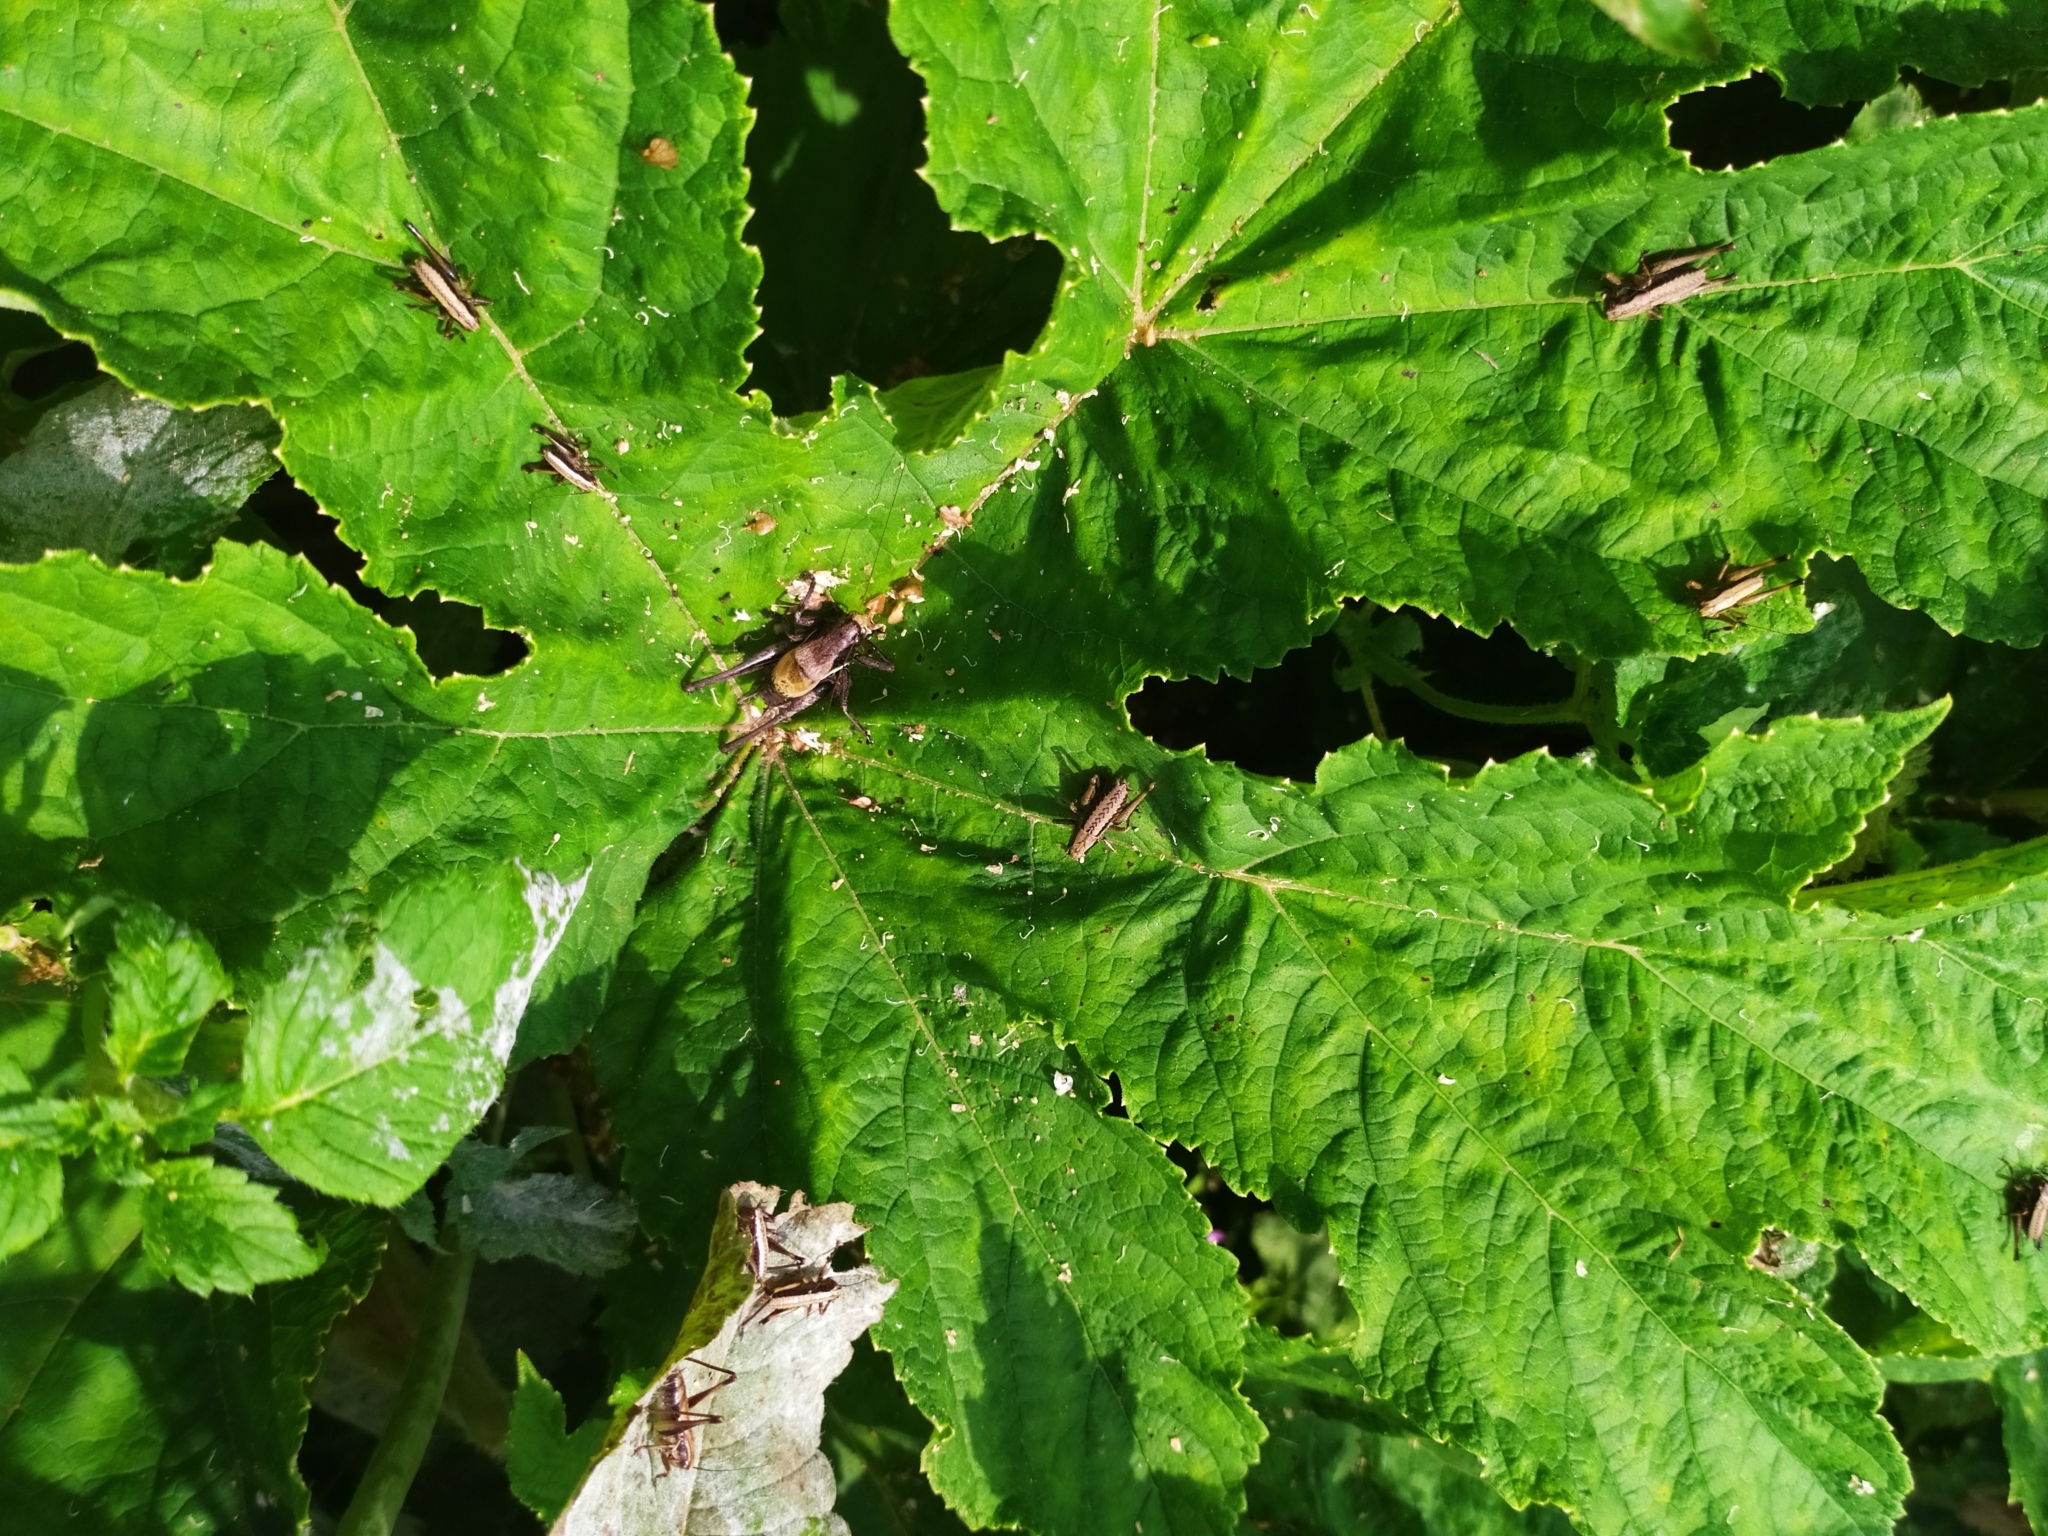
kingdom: Animalia
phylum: Arthropoda
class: Insecta
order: Orthoptera
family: Tettigoniidae
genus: Pholidoptera
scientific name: Pholidoptera aptera
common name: Alpine dark bush-cricket
